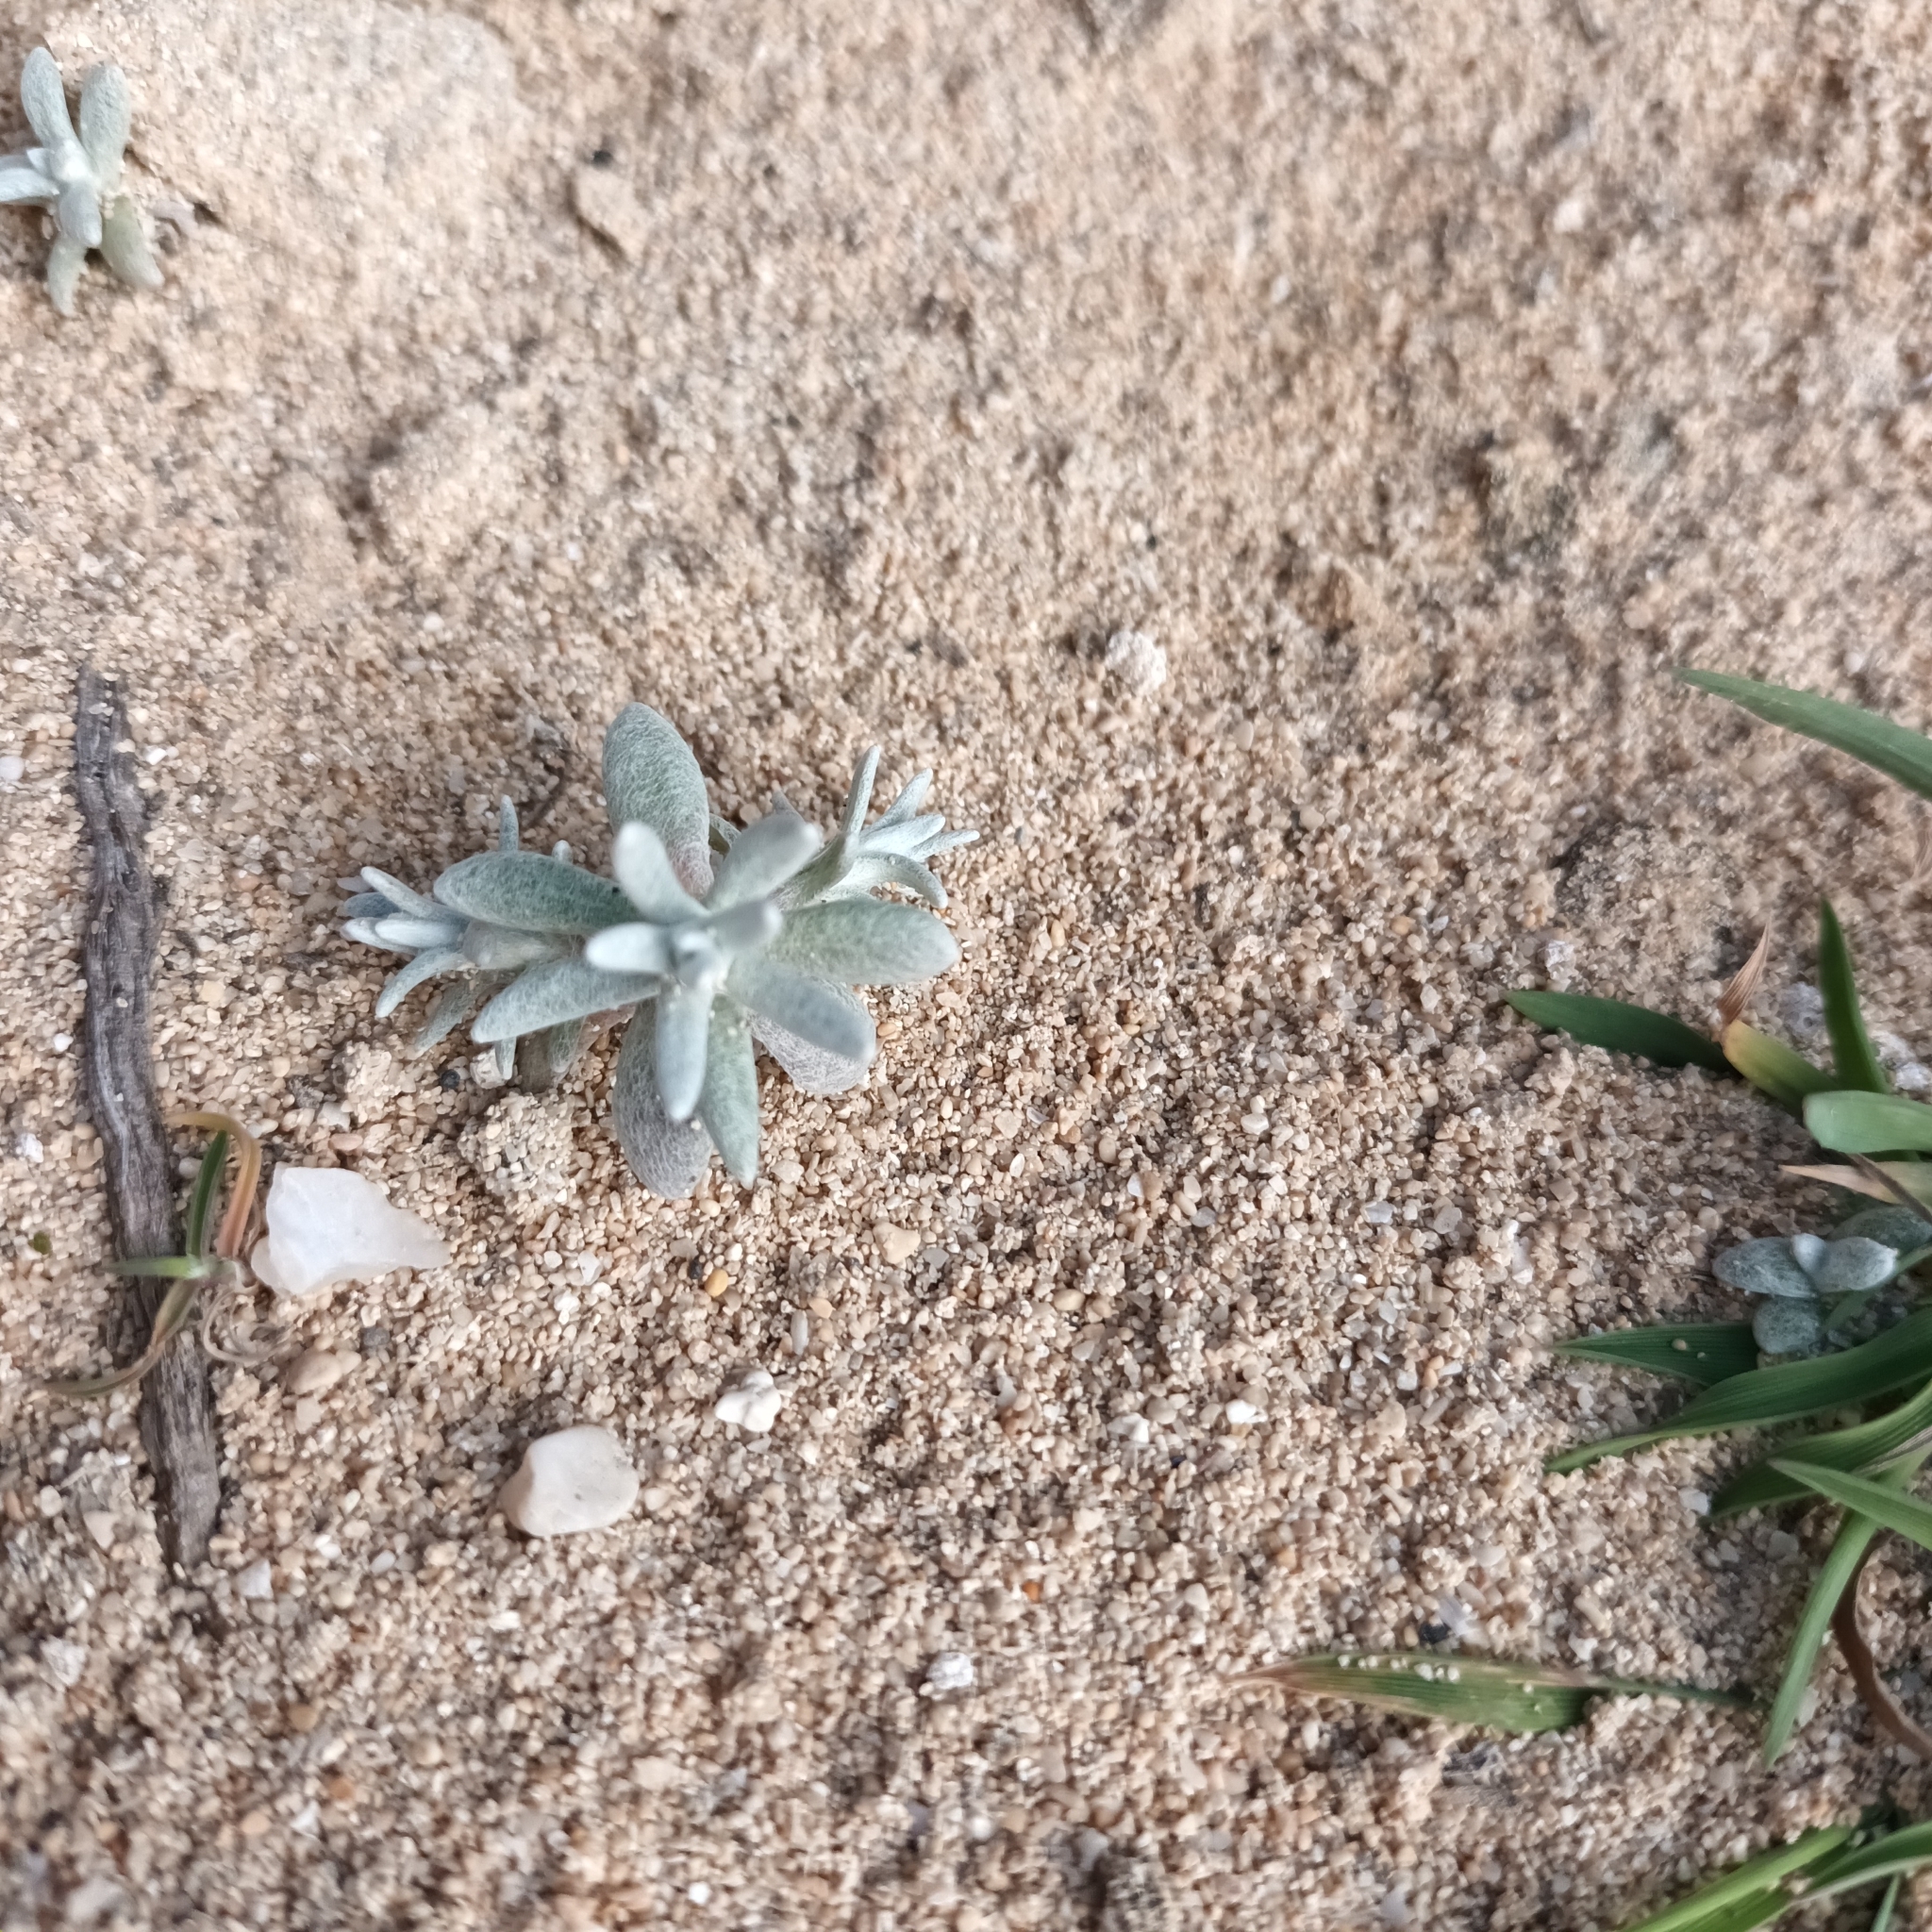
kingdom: Plantae
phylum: Tracheophyta
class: Magnoliopsida
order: Asterales
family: Asteraceae
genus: Helichrysum
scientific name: Helichrysum stoechas
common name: Goldilocks
